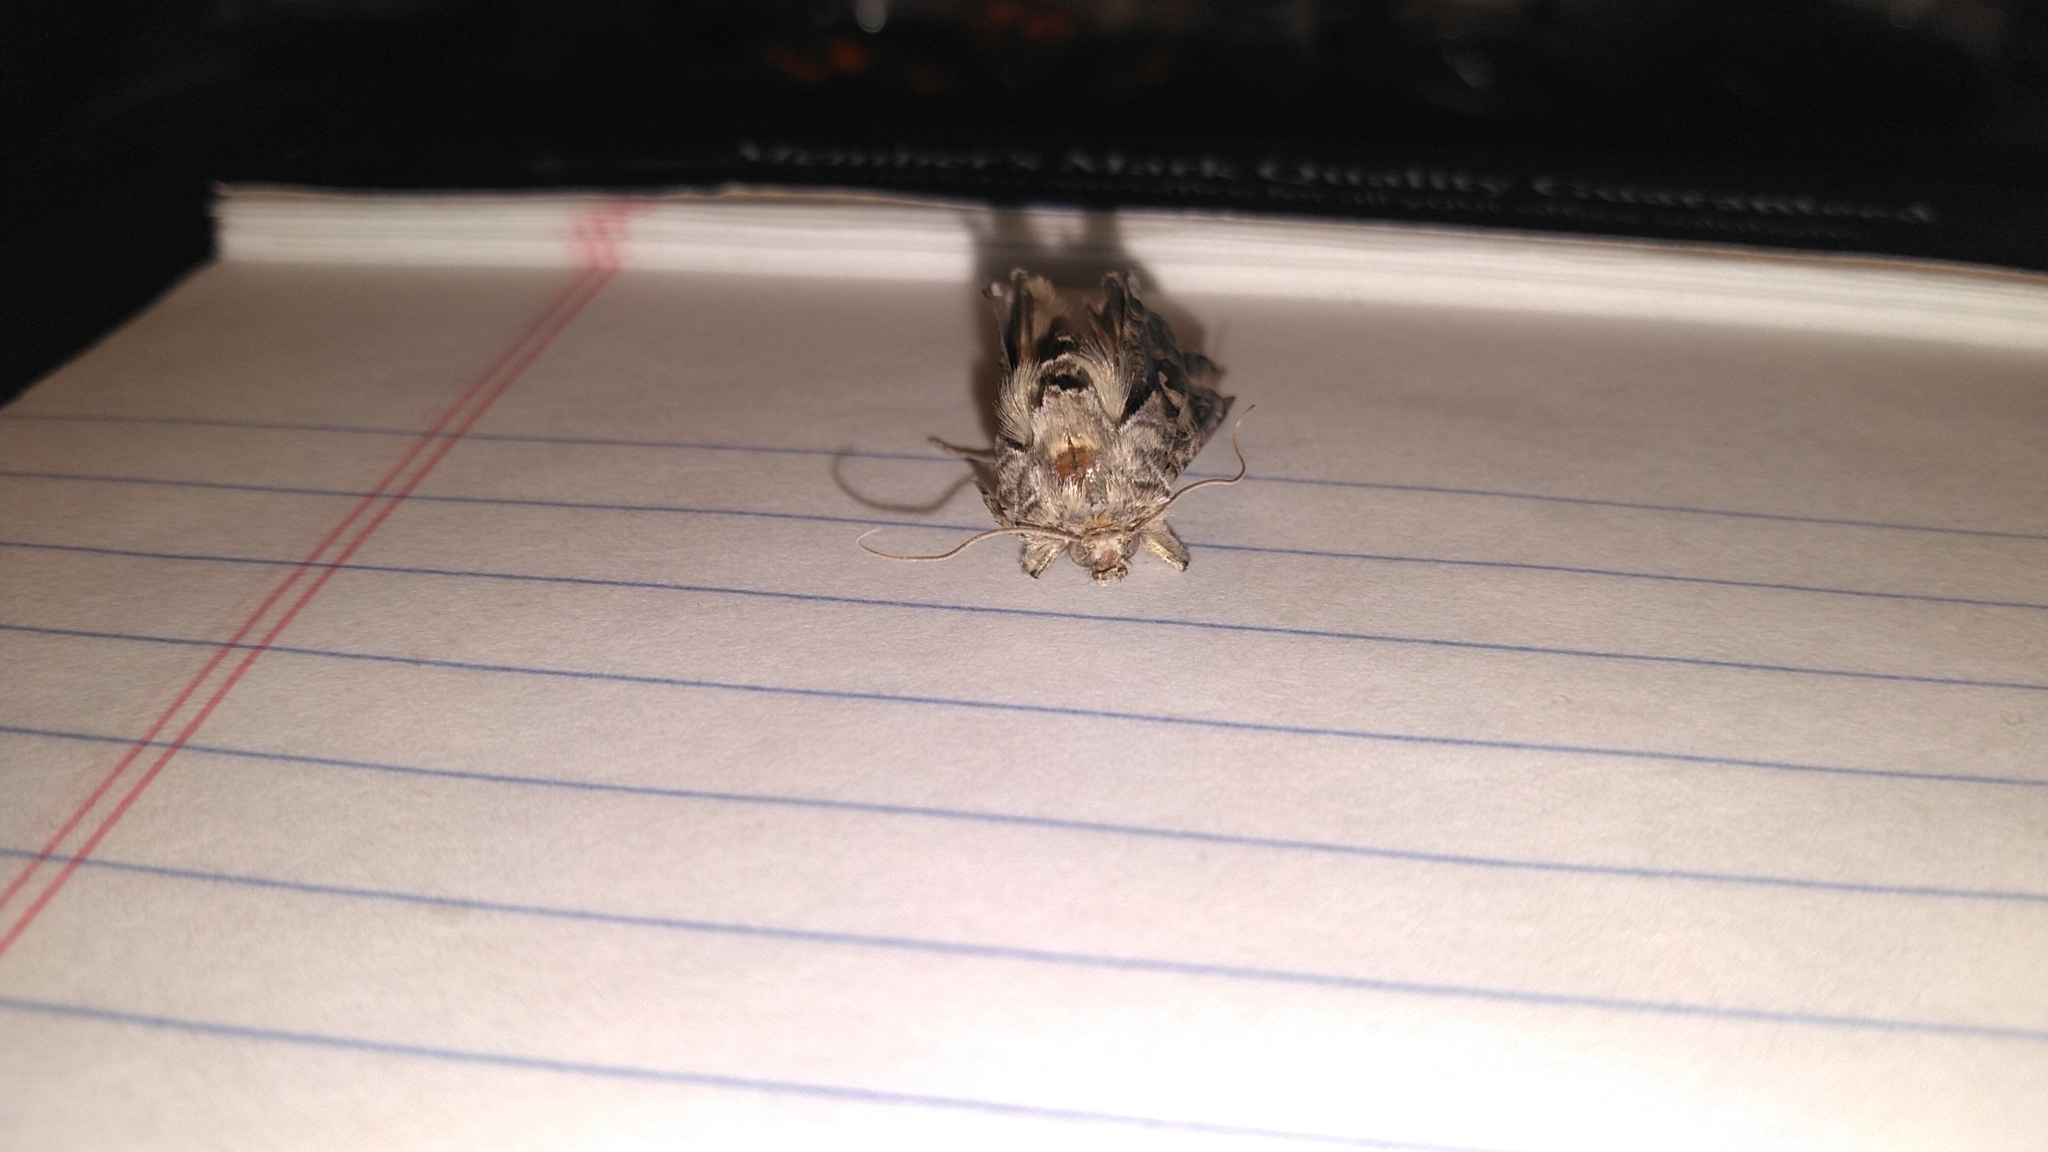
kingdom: Animalia
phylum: Arthropoda
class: Insecta
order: Lepidoptera
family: Noctuidae
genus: Autographa
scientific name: Autographa californica
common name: Alfalfa looper
